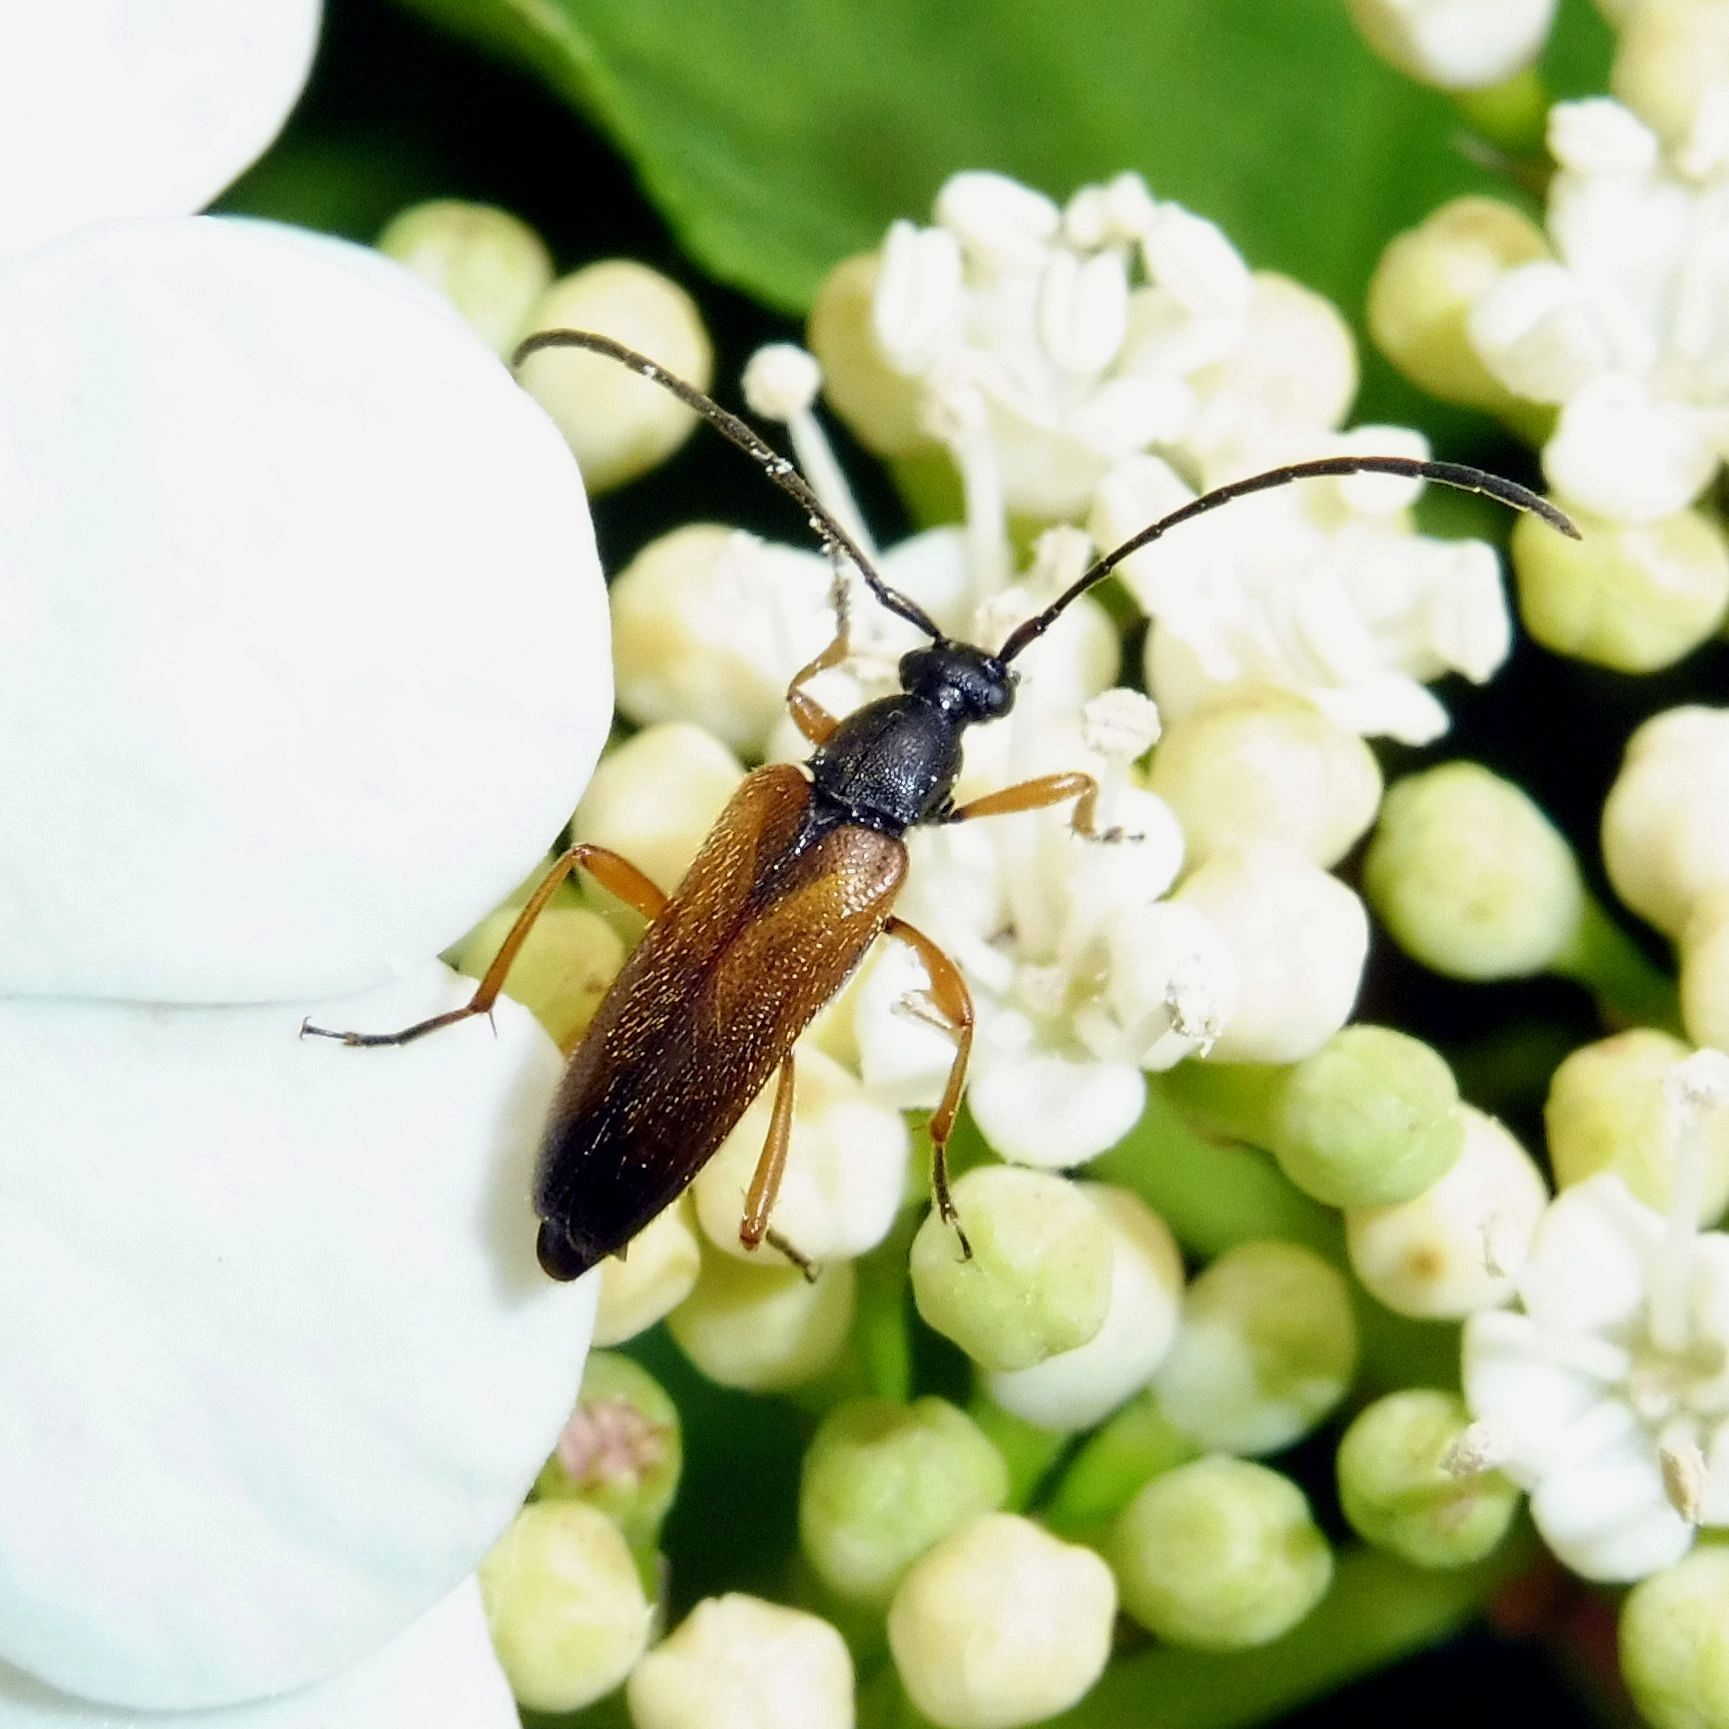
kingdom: Animalia
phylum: Arthropoda
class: Insecta
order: Coleoptera
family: Cerambycidae
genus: Alosterna
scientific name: Alosterna tabacicolor
